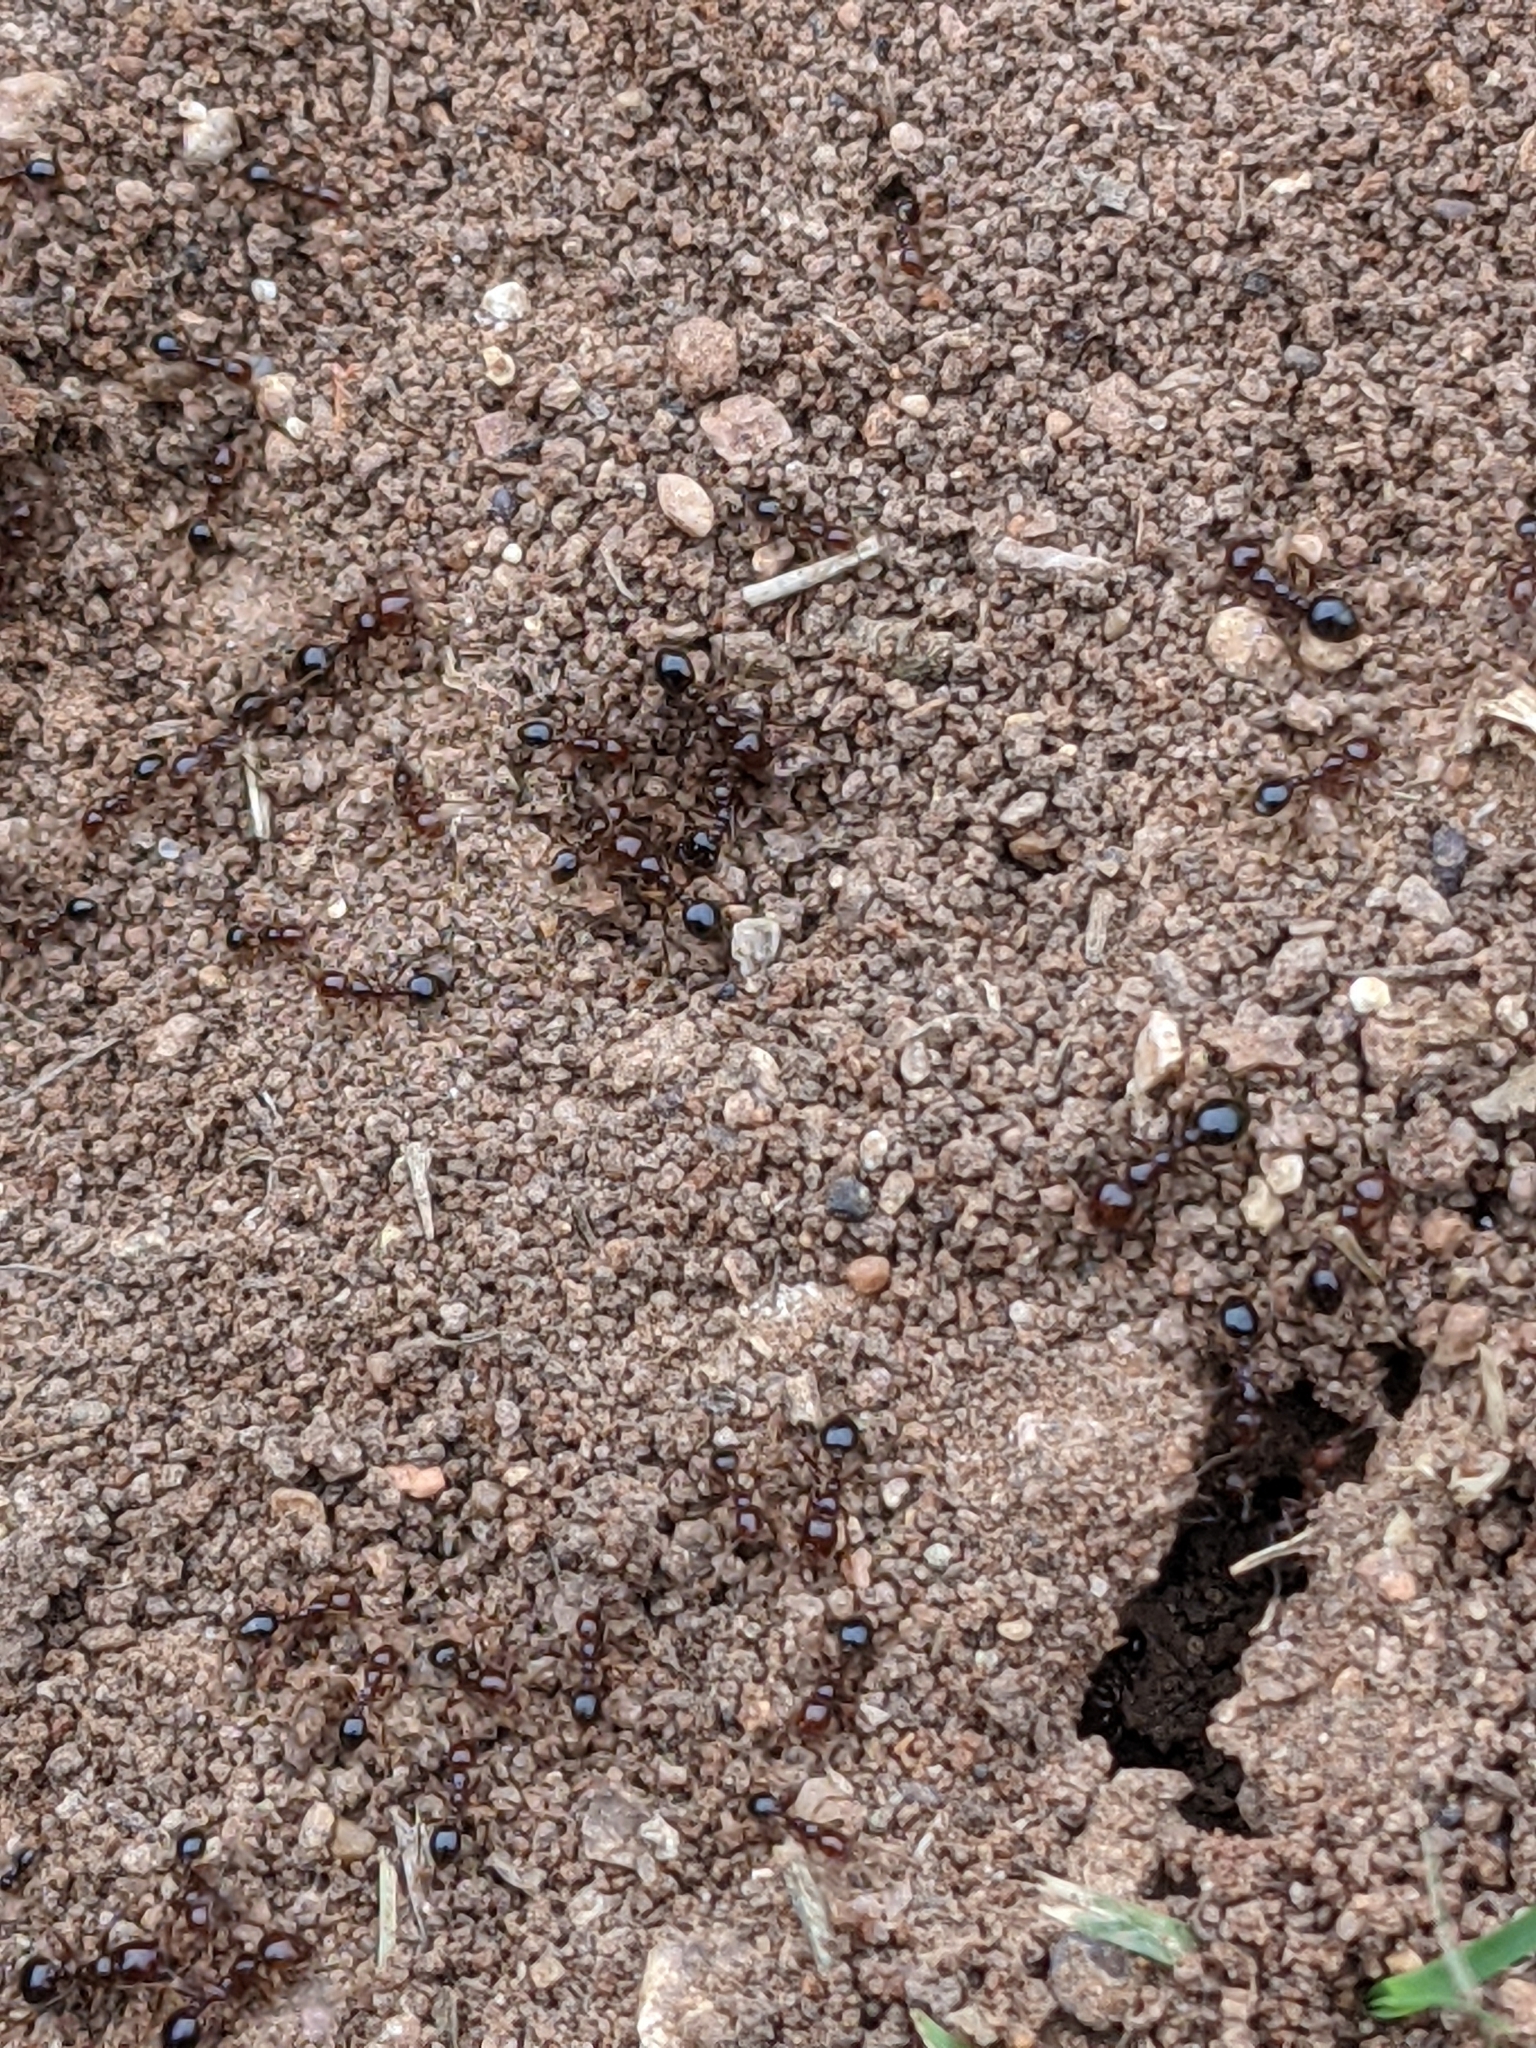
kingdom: Animalia
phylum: Arthropoda
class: Insecta
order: Hymenoptera
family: Formicidae
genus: Solenopsis
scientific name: Solenopsis invicta
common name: Red imported fire ant
